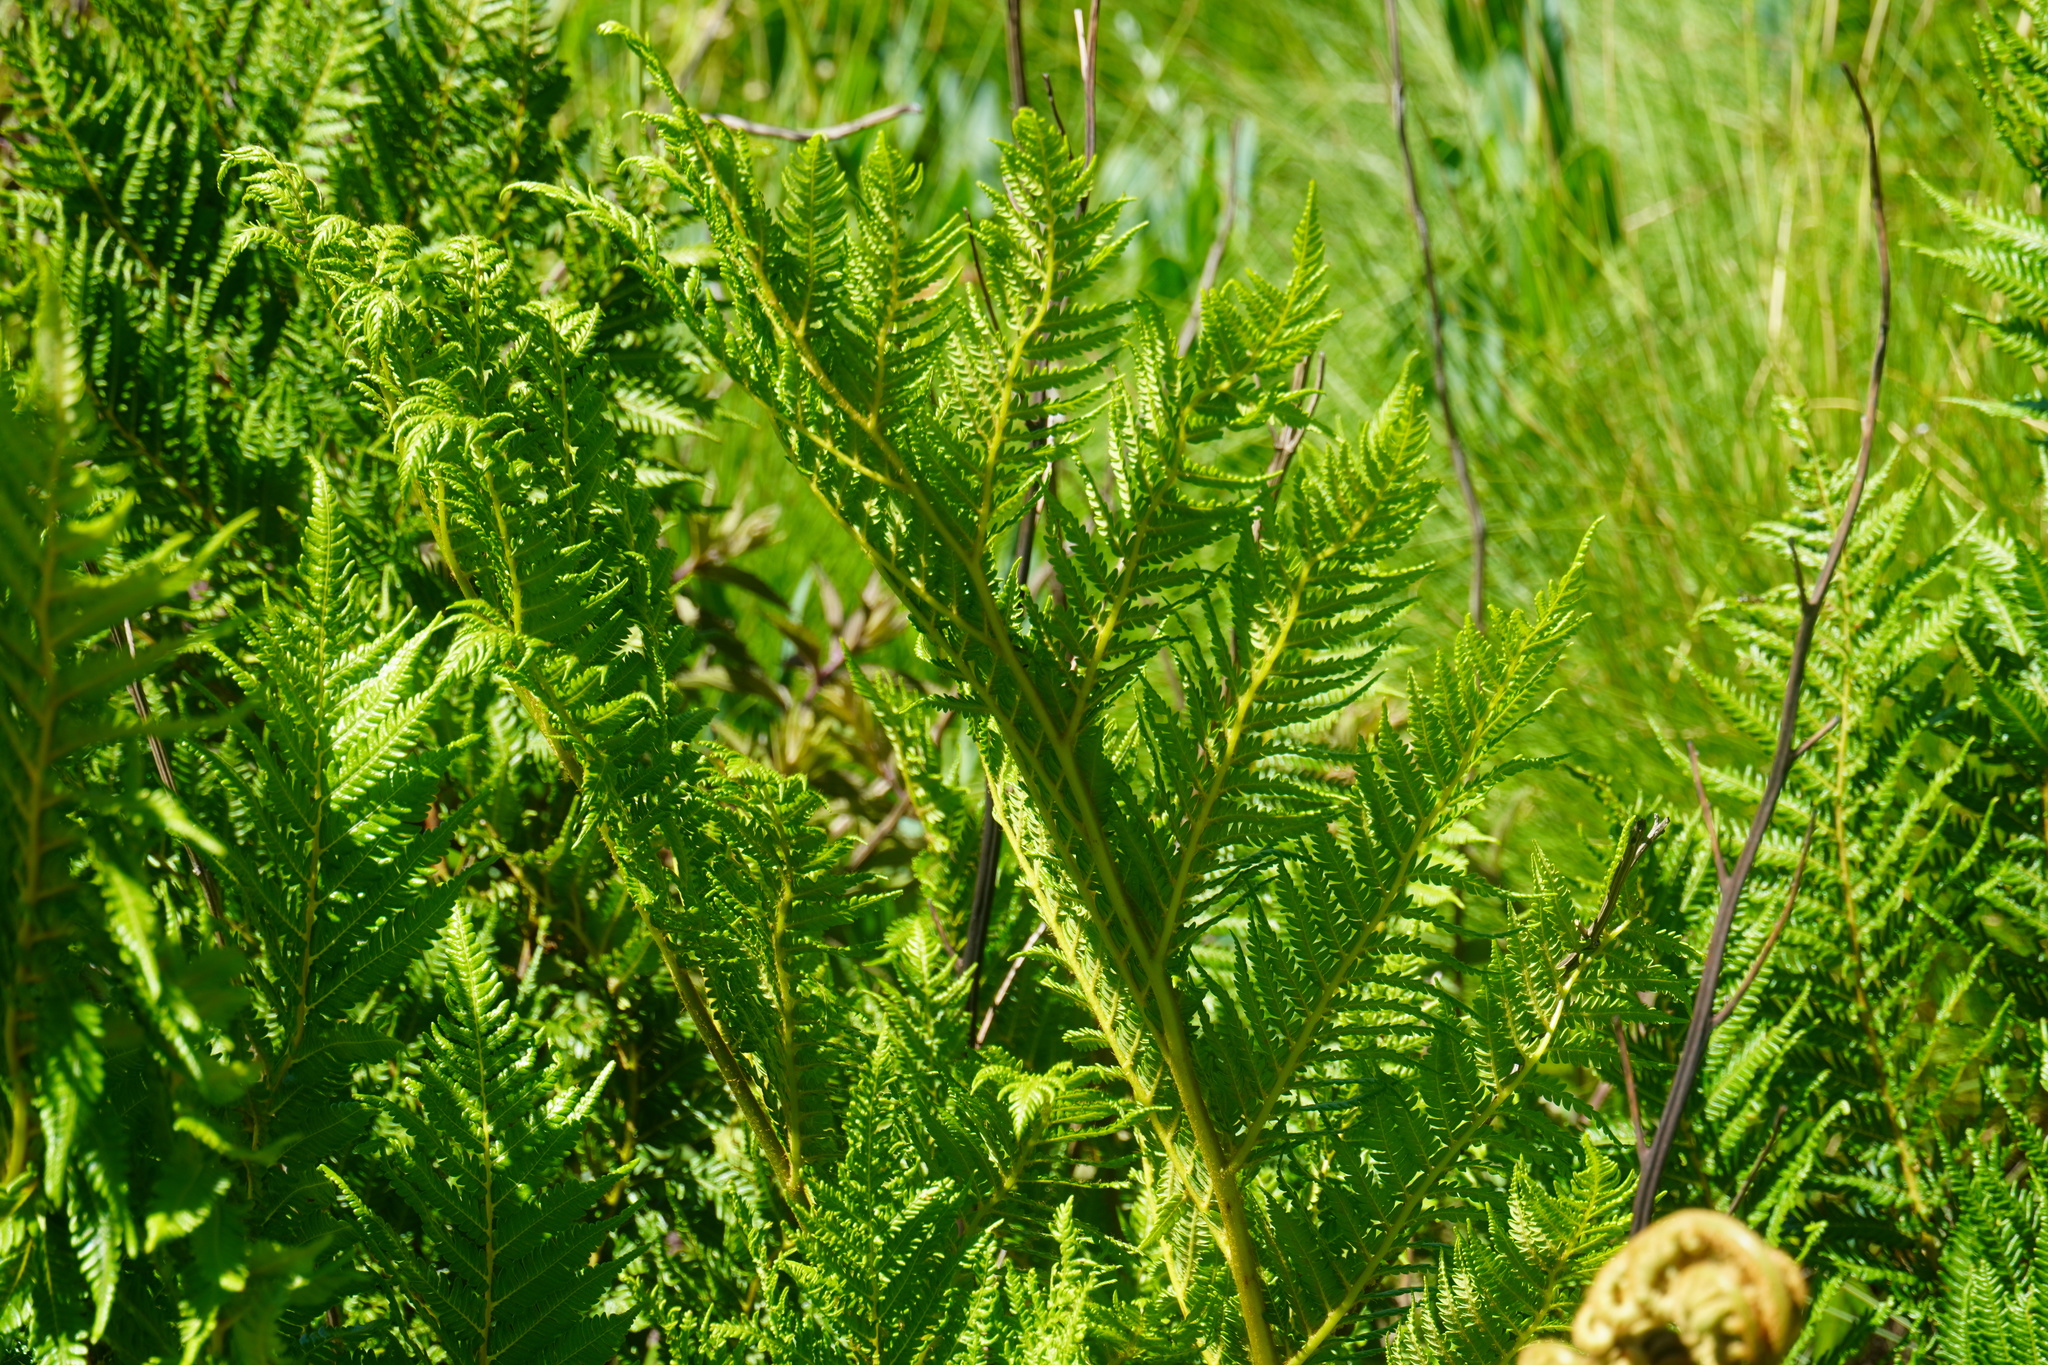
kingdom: Plantae
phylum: Tracheophyta
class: Polypodiopsida
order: Cyatheales
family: Cyatheaceae
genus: Alsophila
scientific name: Alsophila dregei
